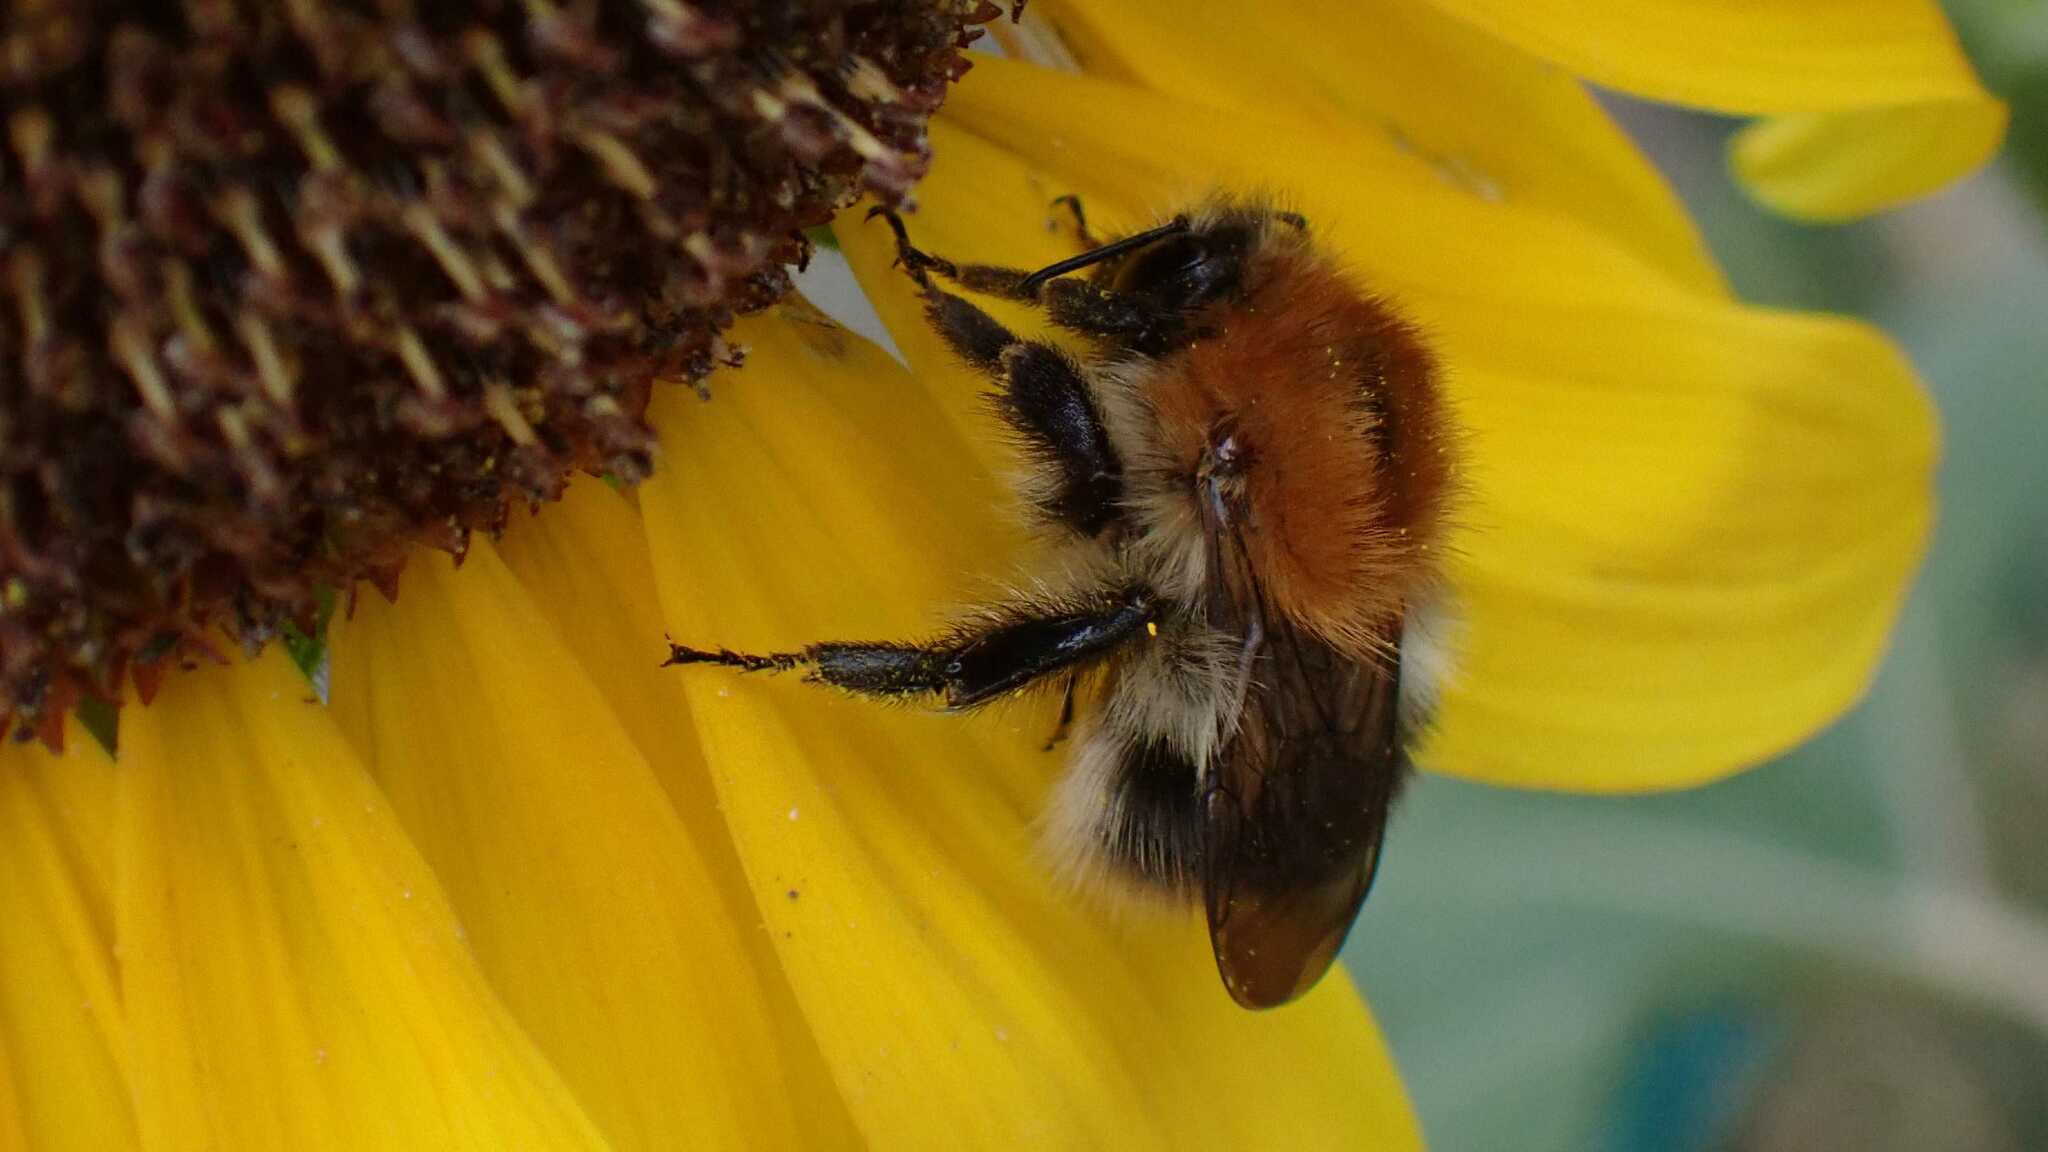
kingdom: Animalia
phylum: Arthropoda
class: Insecta
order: Hymenoptera
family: Apidae
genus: Bombus
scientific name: Bombus pascuorum
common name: Common carder bee
